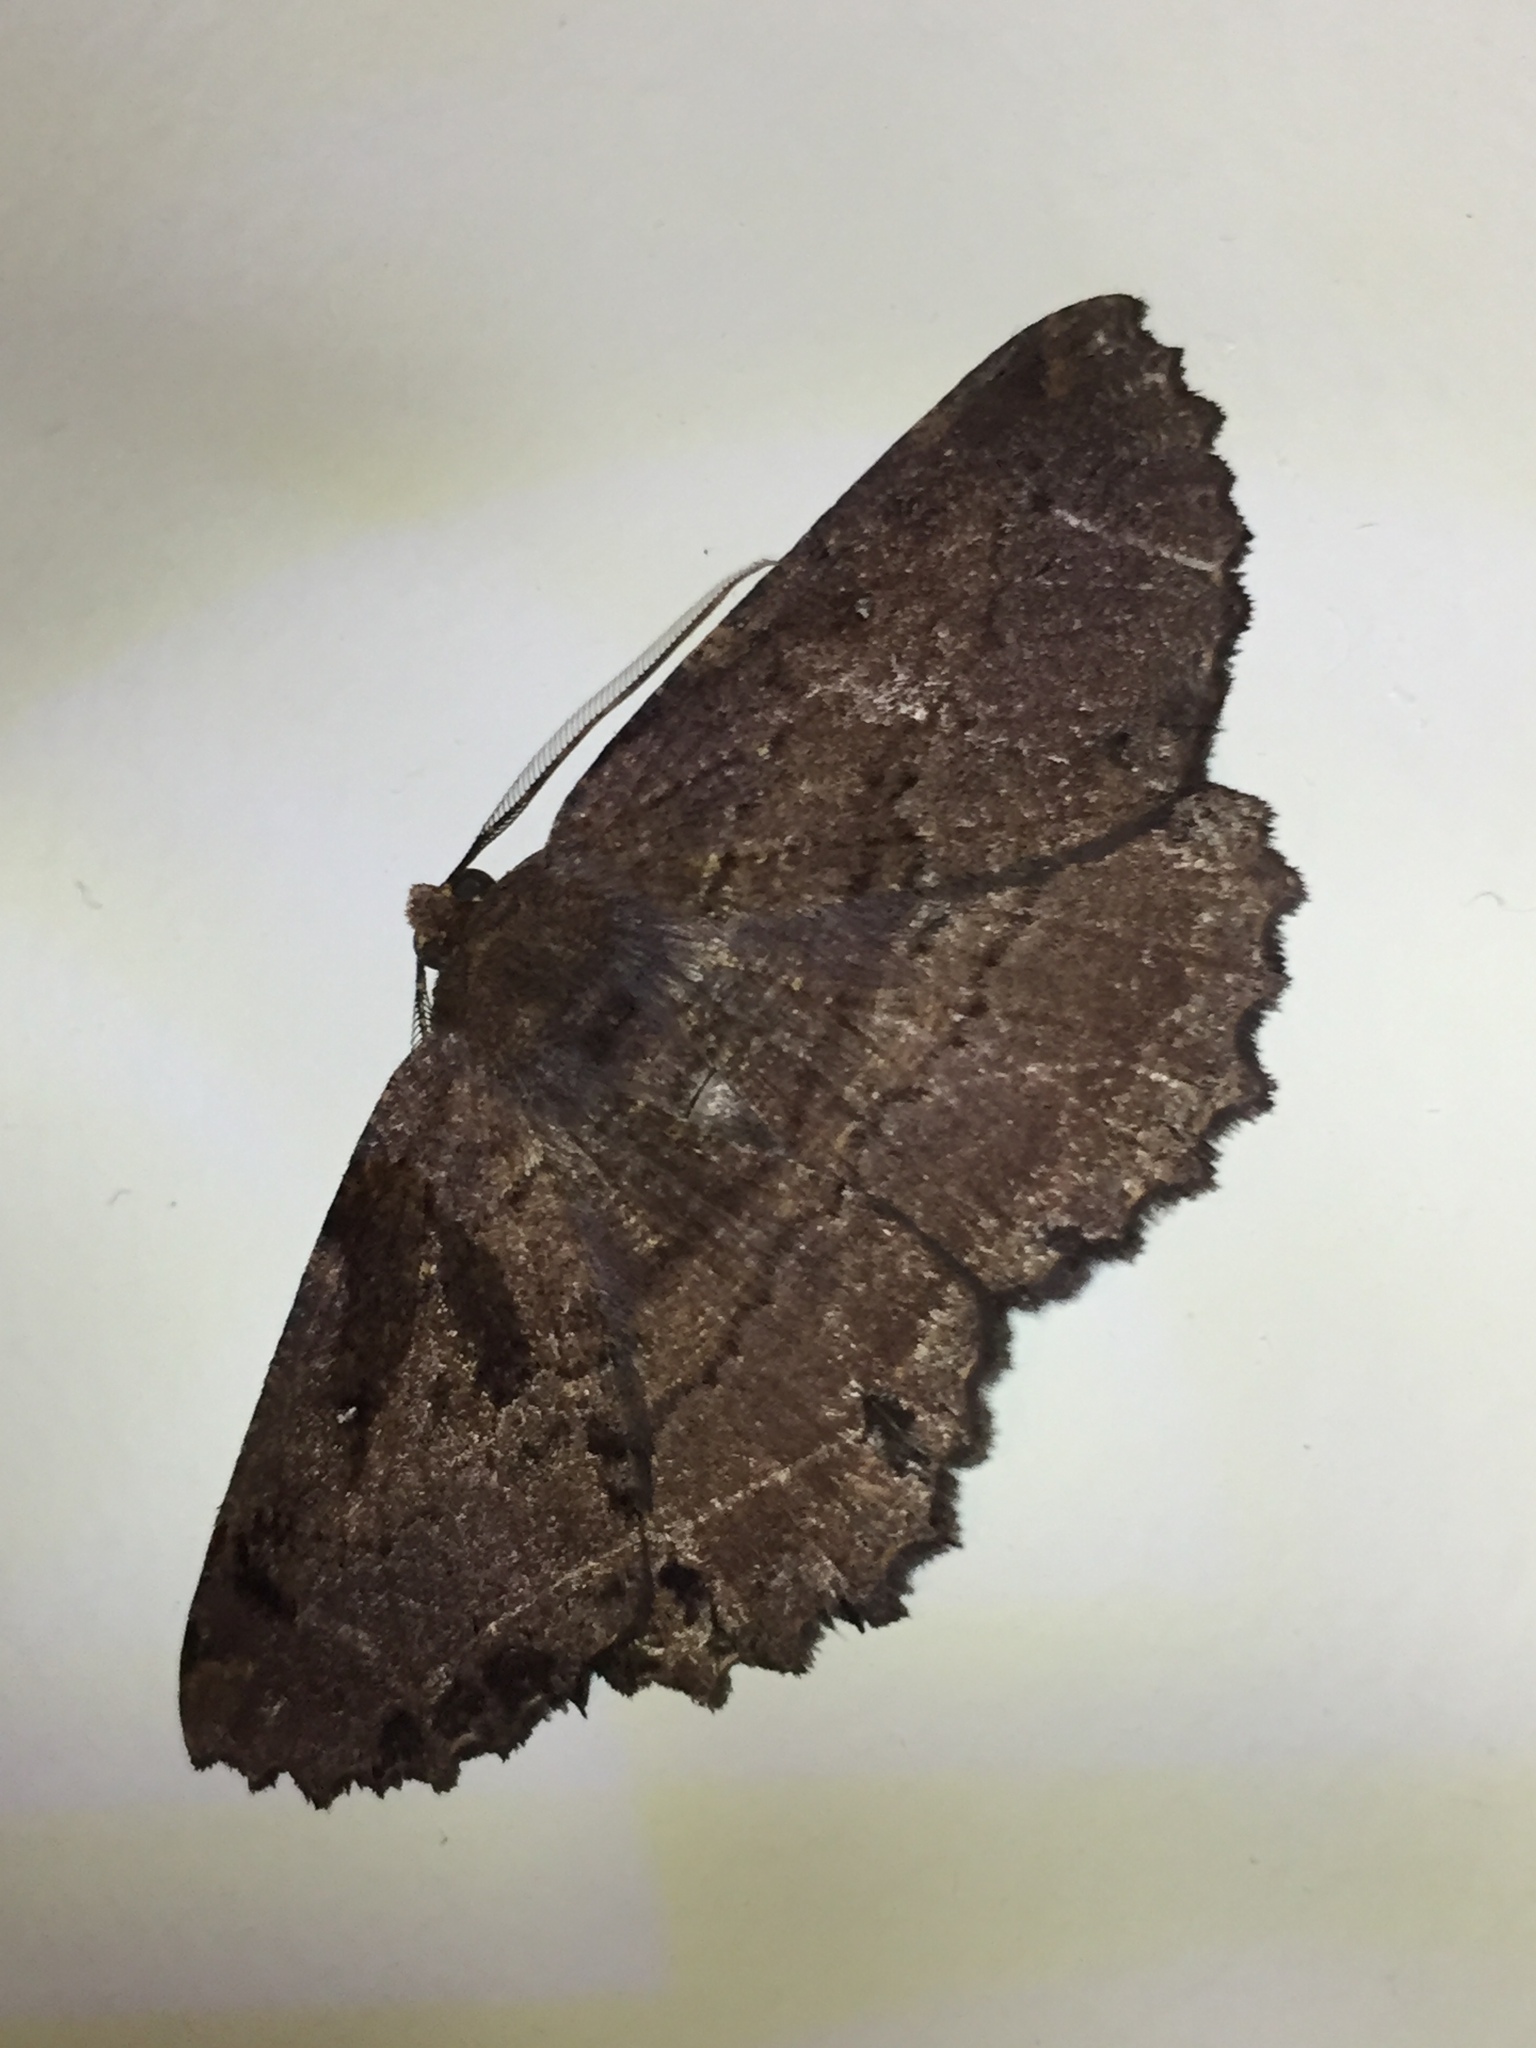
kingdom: Animalia
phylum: Arthropoda
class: Insecta
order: Lepidoptera
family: Geometridae
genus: Gellonia
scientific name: Gellonia dejectaria
